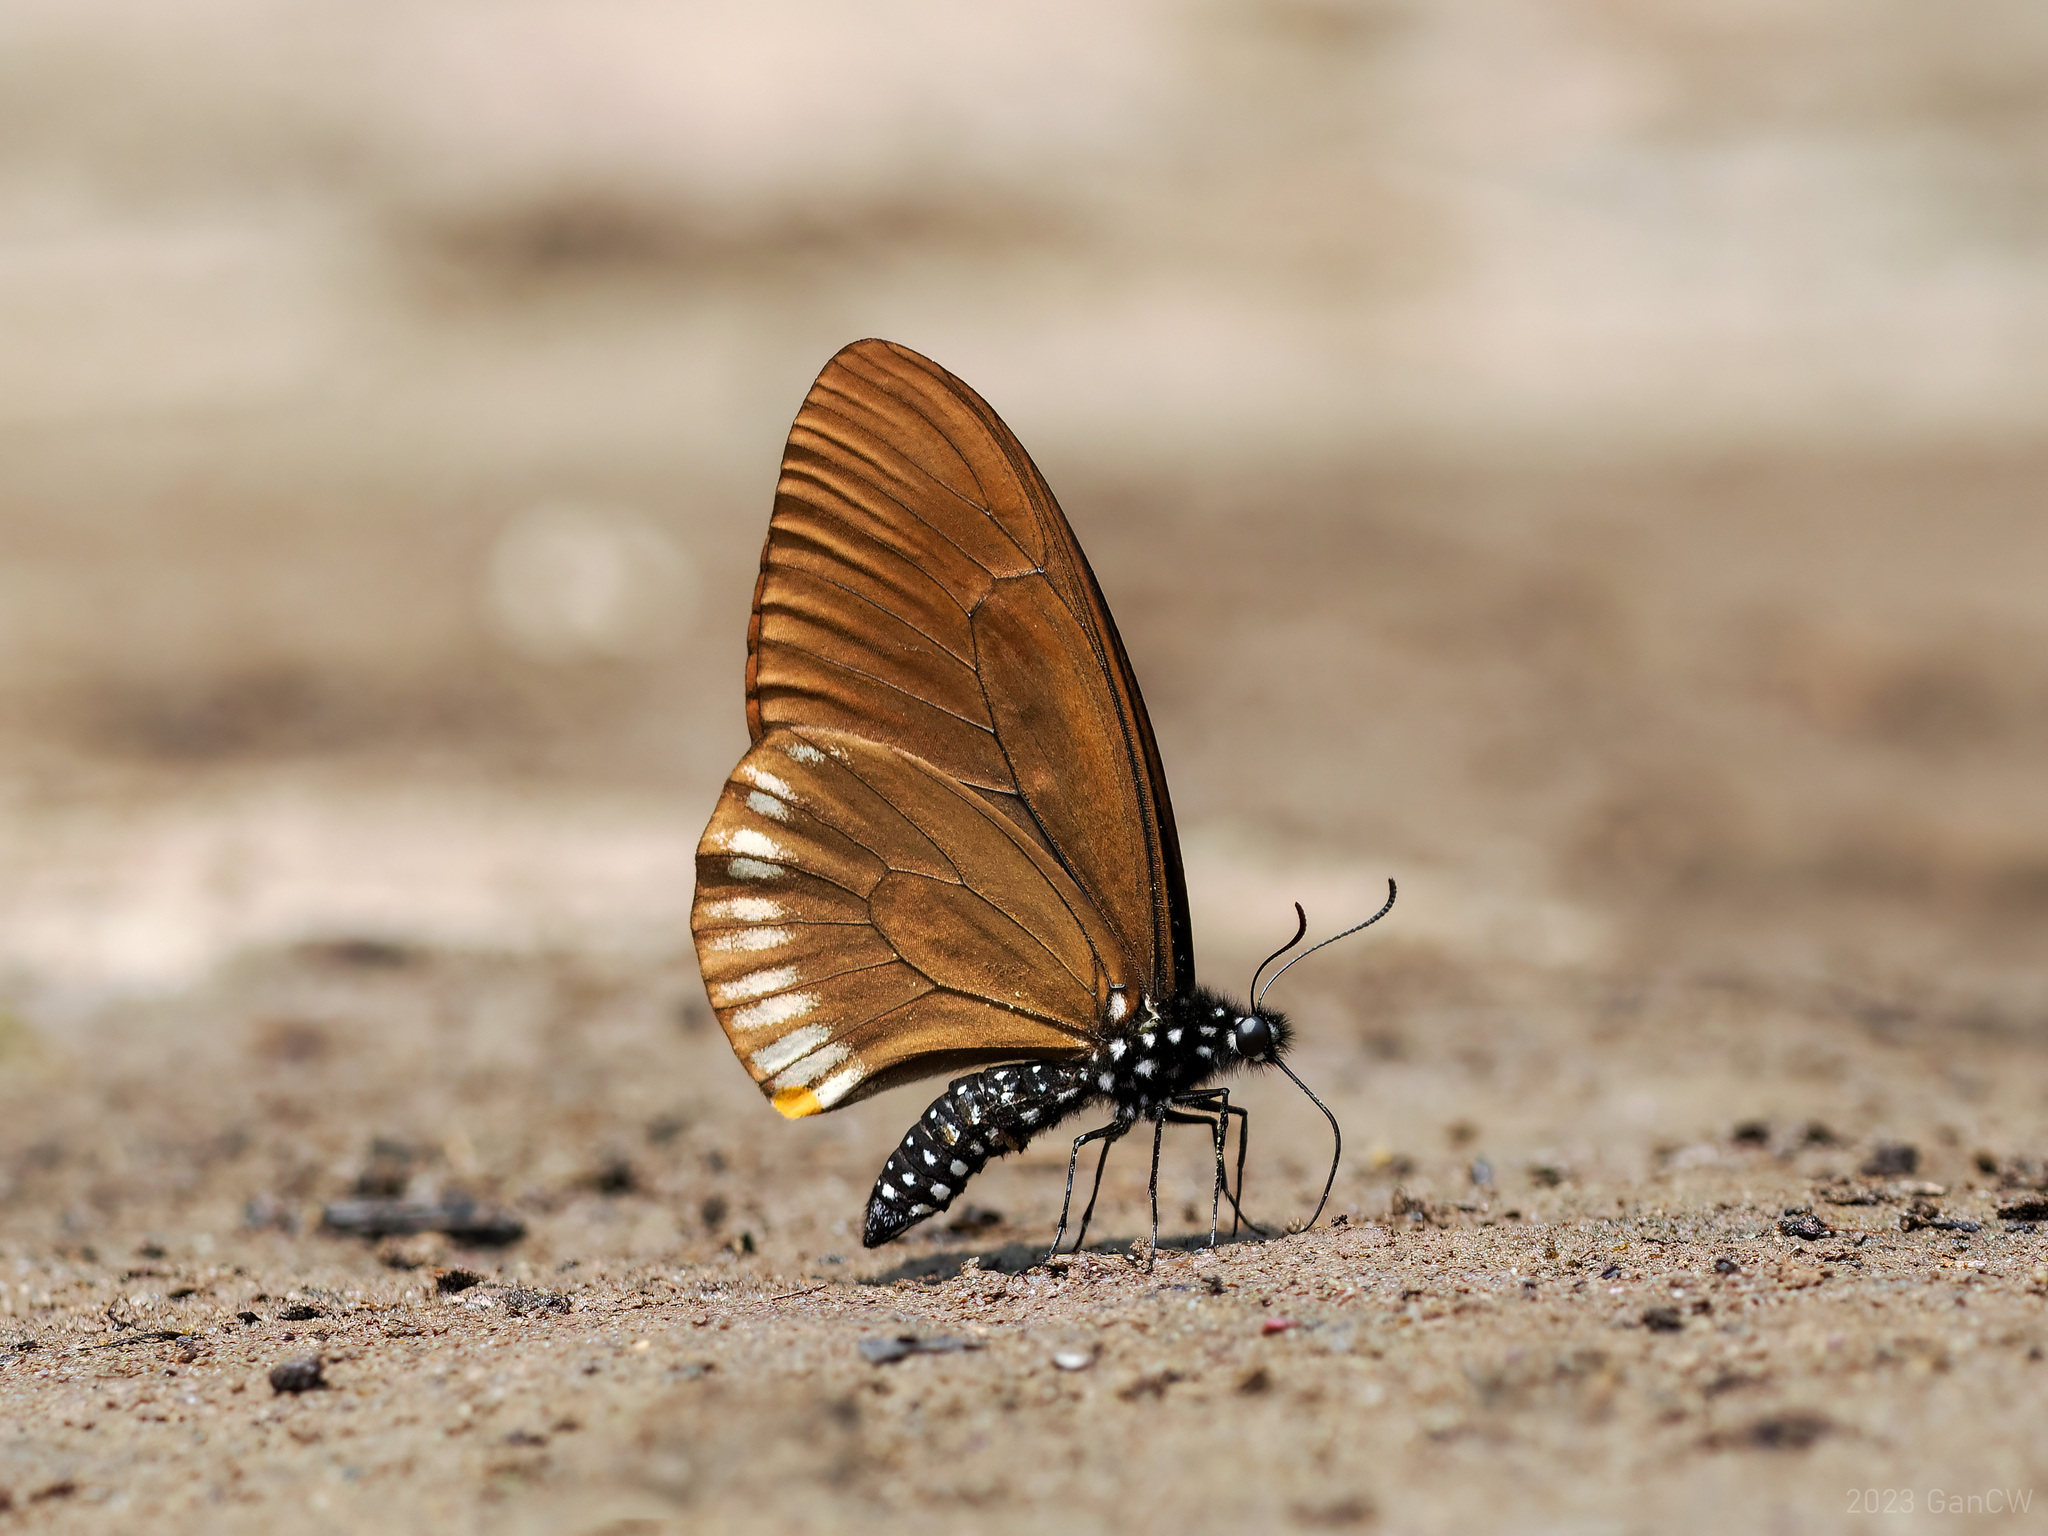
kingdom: Animalia
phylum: Arthropoda
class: Insecta
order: Lepidoptera
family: Papilionidae
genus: Papilio
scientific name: Papilio slateri
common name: Blue striped mime swallowtail
